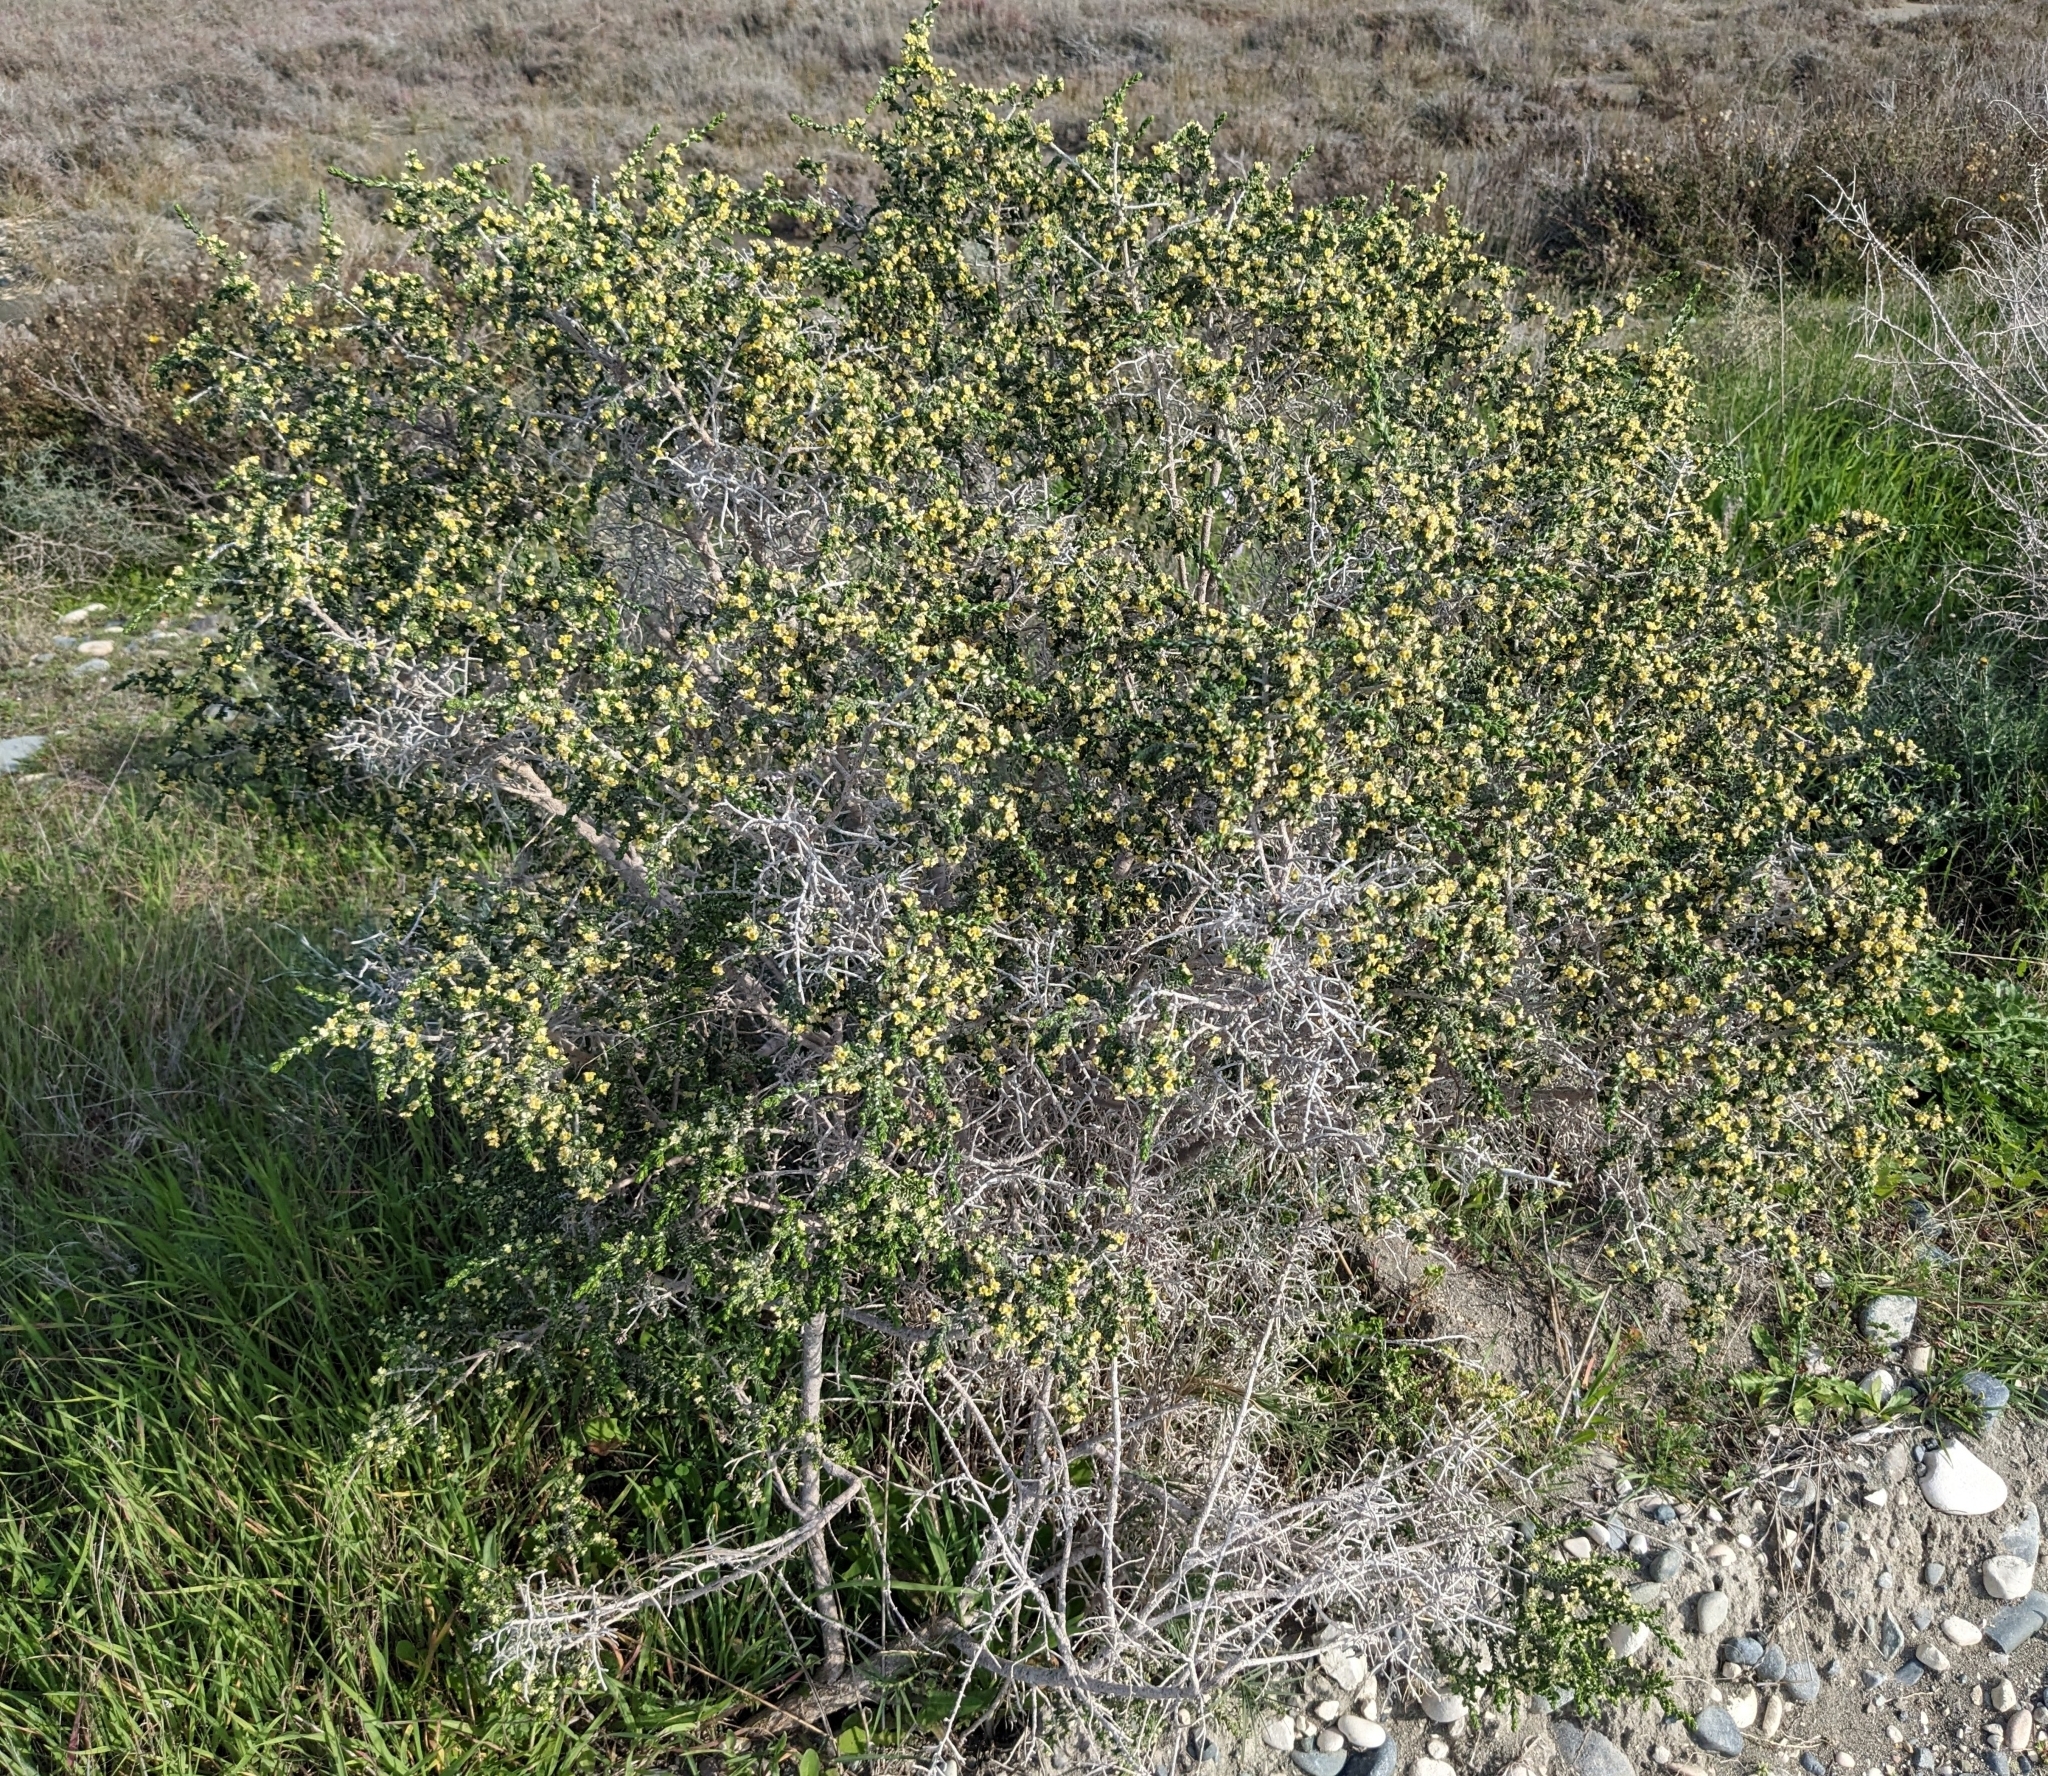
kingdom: Plantae
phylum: Tracheophyta
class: Magnoliopsida
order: Malvales
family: Thymelaeaceae
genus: Thymelaea
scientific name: Thymelaea hirsuta
